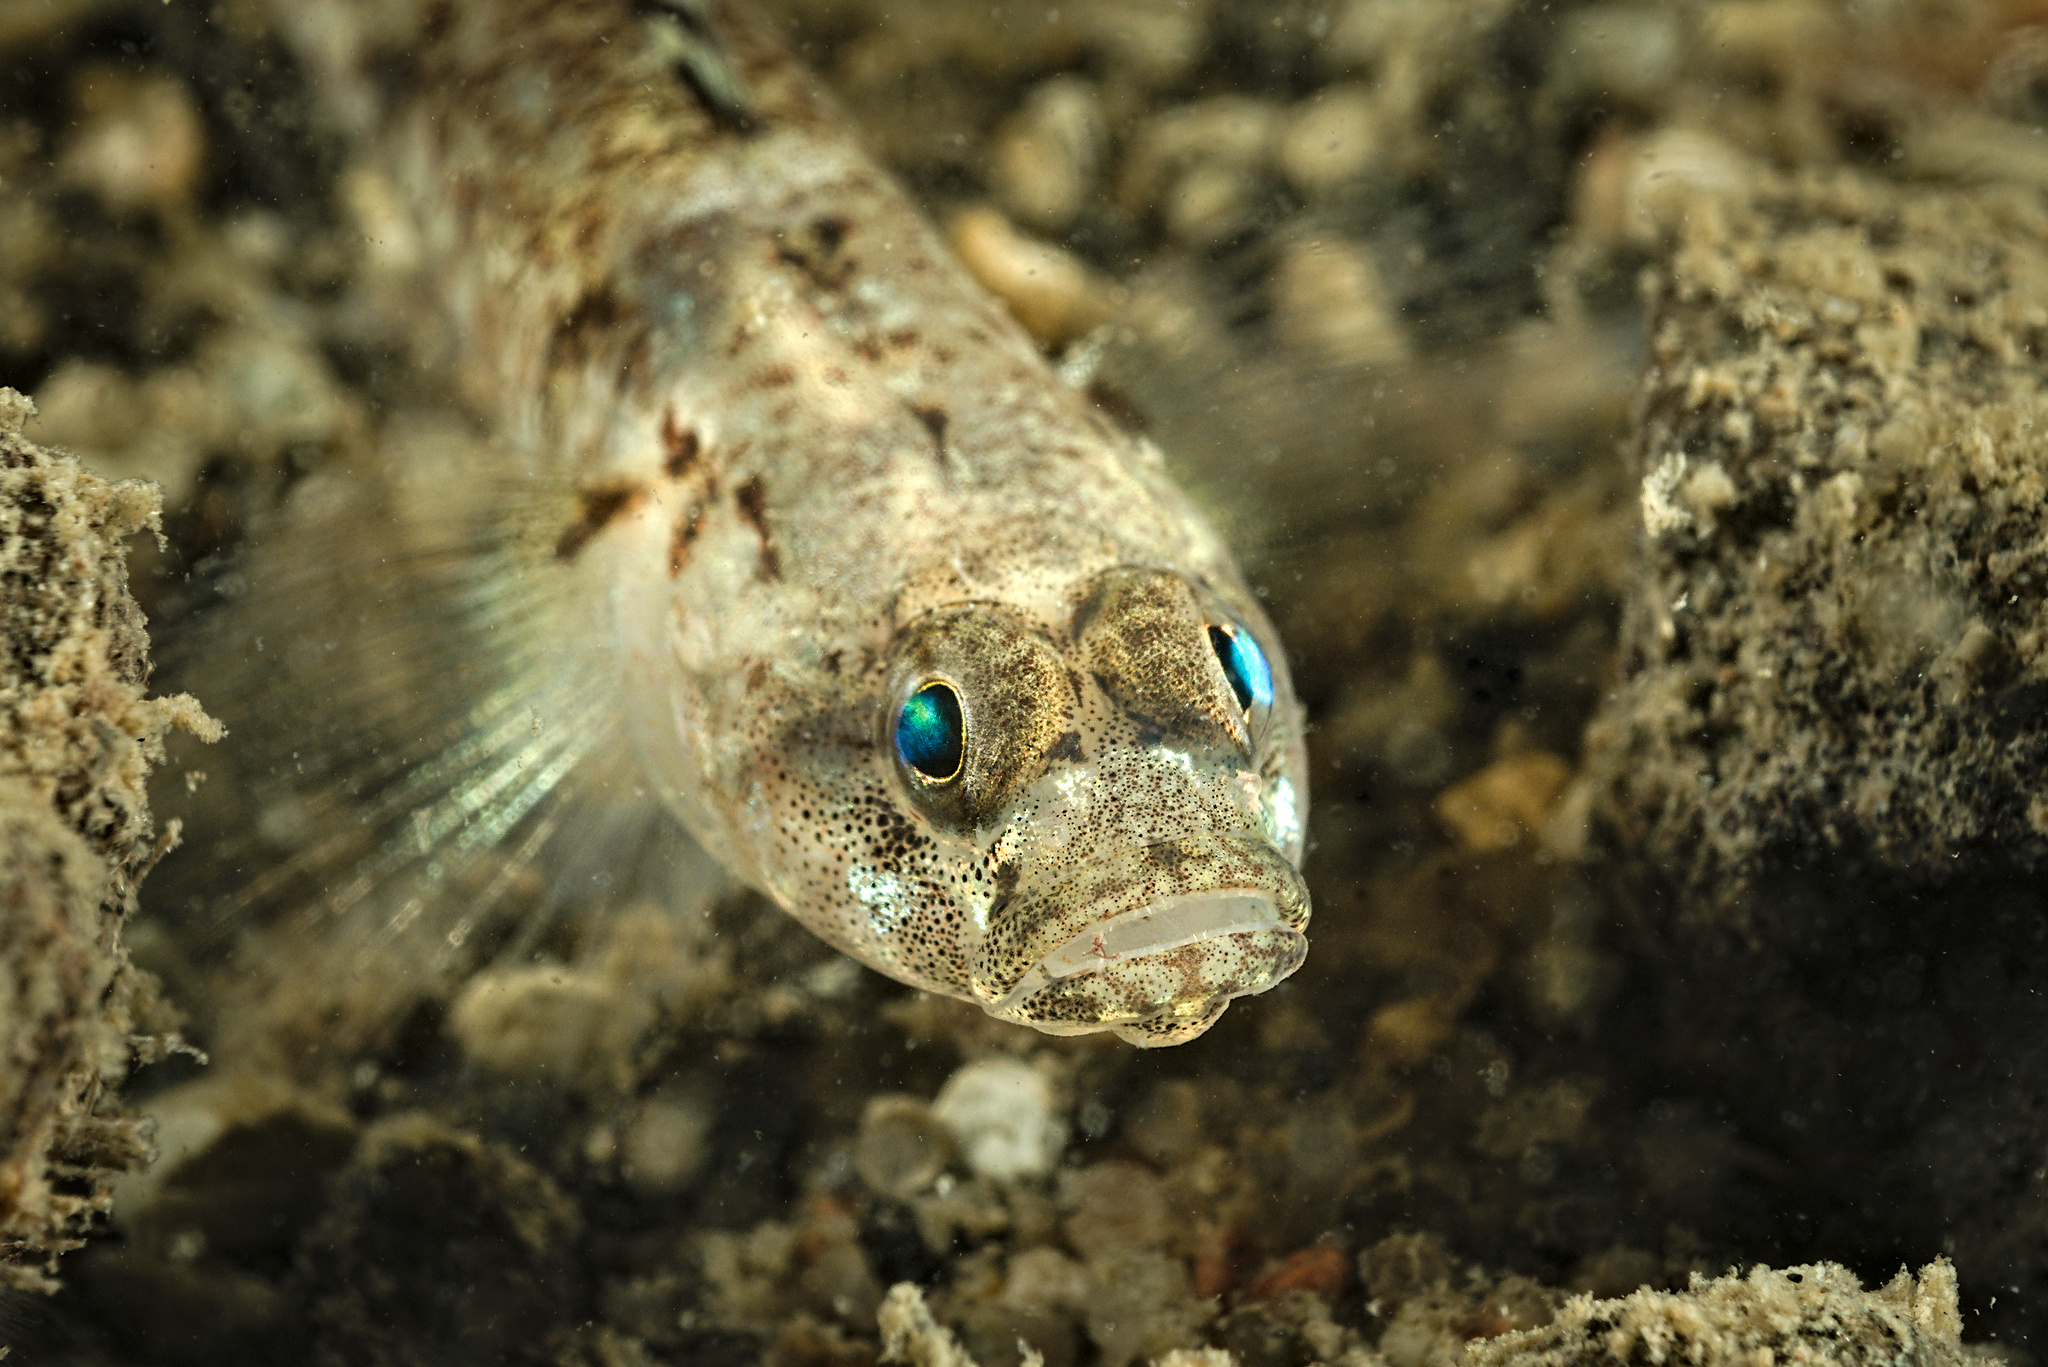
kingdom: Animalia
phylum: Chordata
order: Perciformes
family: Gobiidae
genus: Pomatoschistus
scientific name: Pomatoschistus pictus
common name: Painted goby
